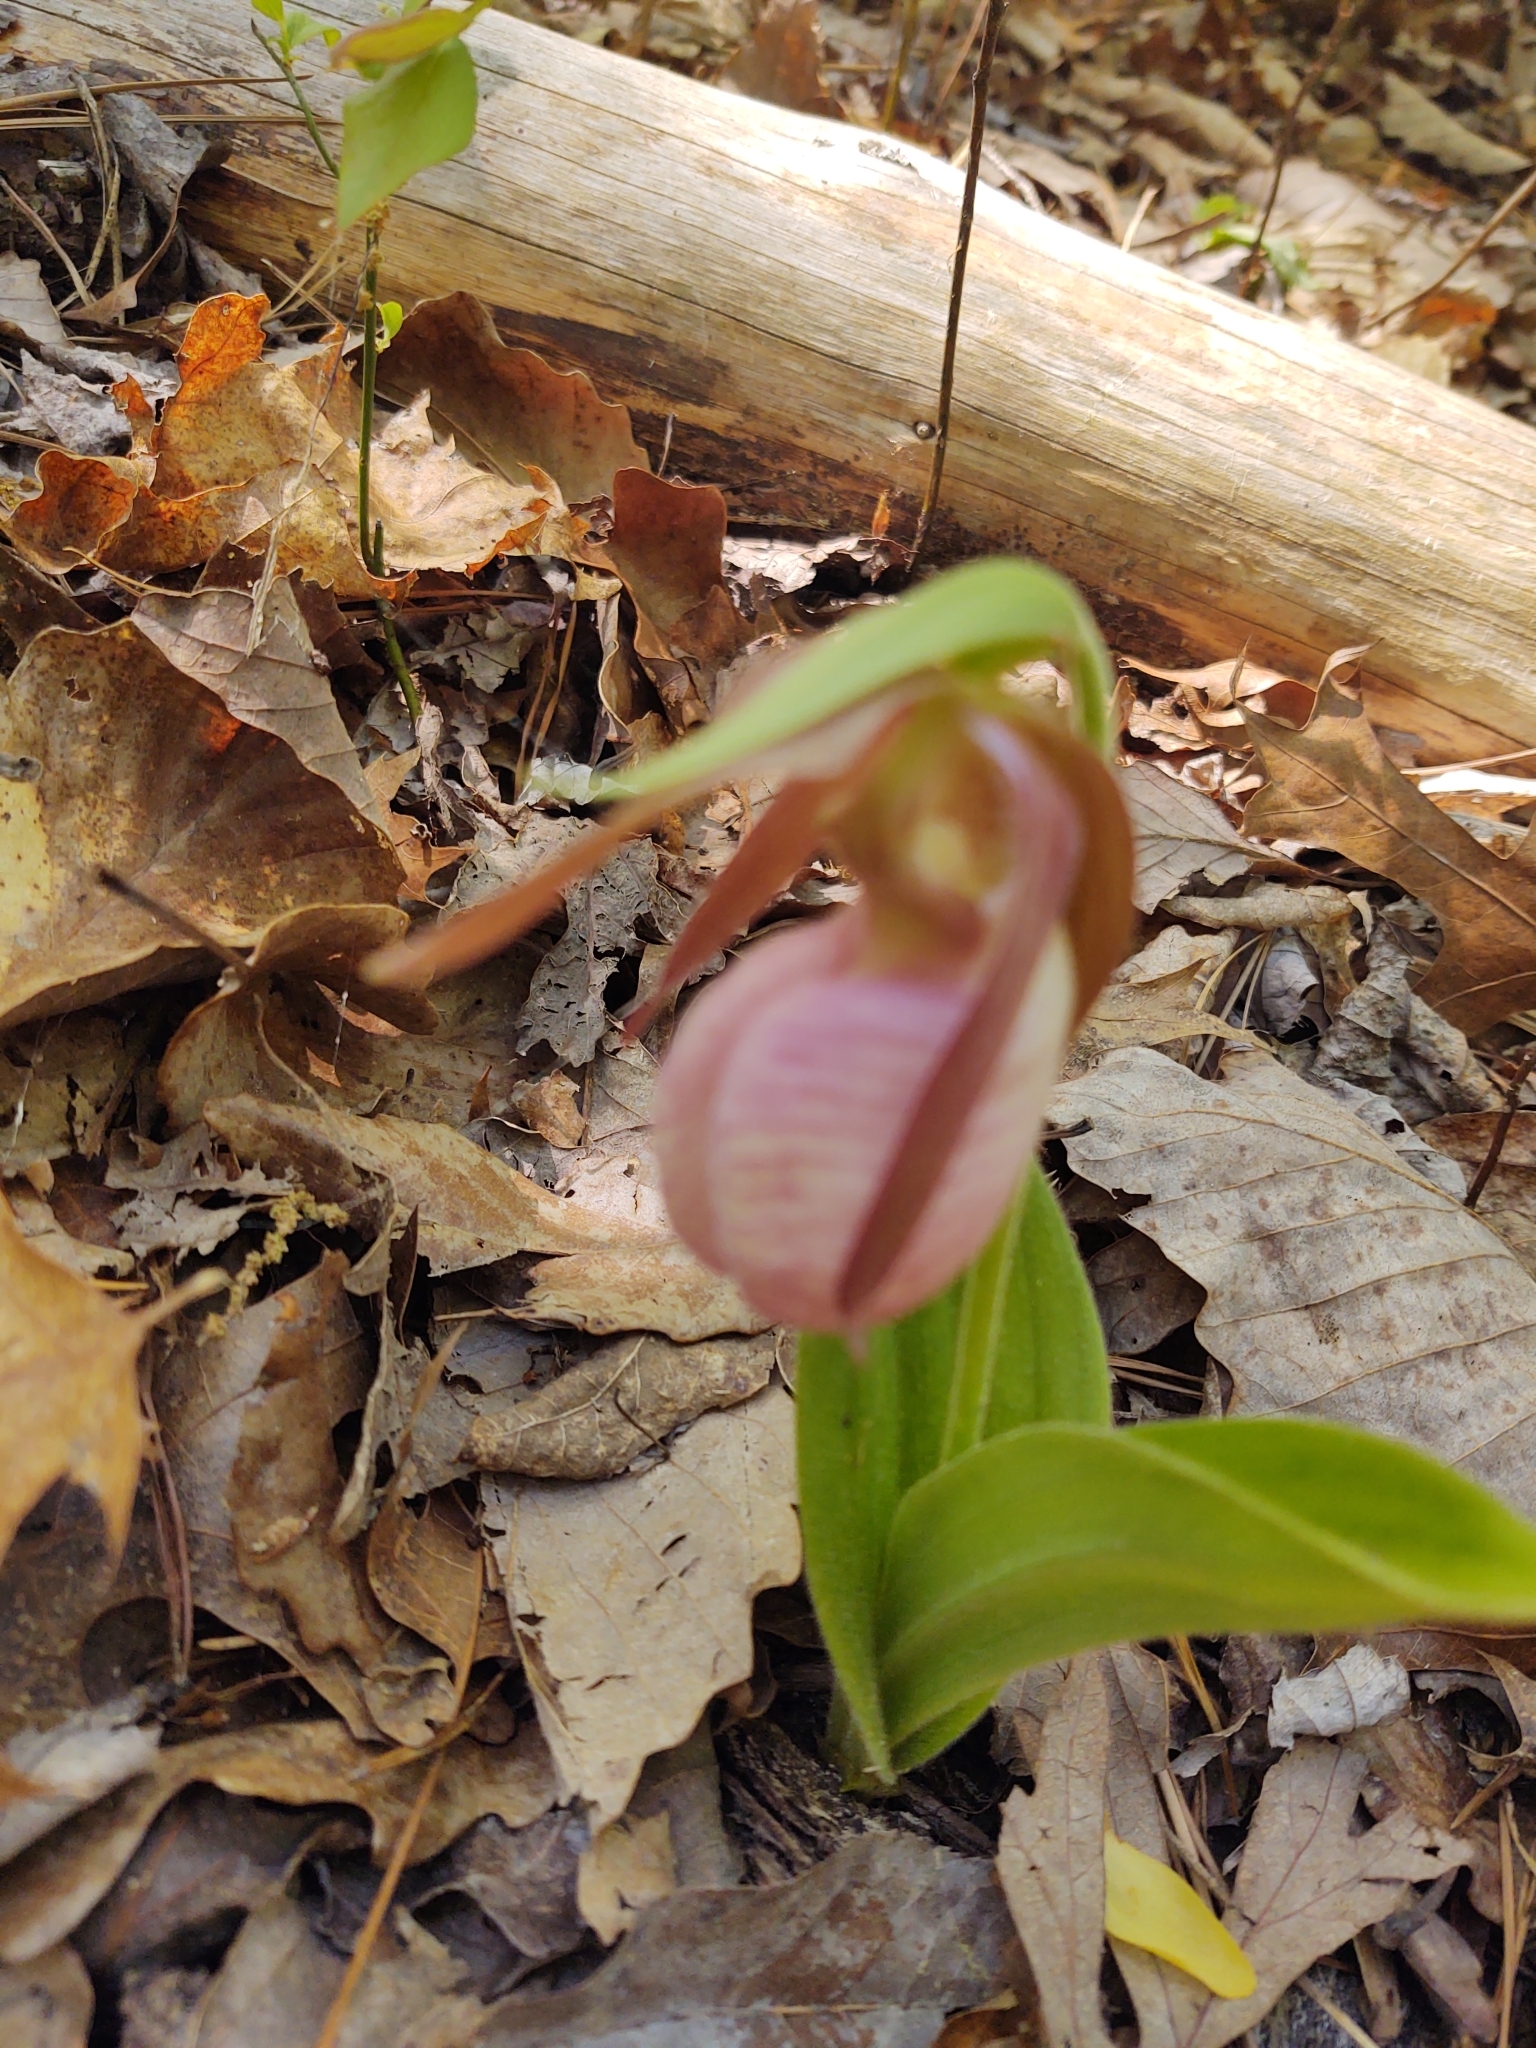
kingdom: Plantae
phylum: Tracheophyta
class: Liliopsida
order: Asparagales
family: Orchidaceae
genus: Cypripedium
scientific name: Cypripedium acaule
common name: Pink lady's-slipper
